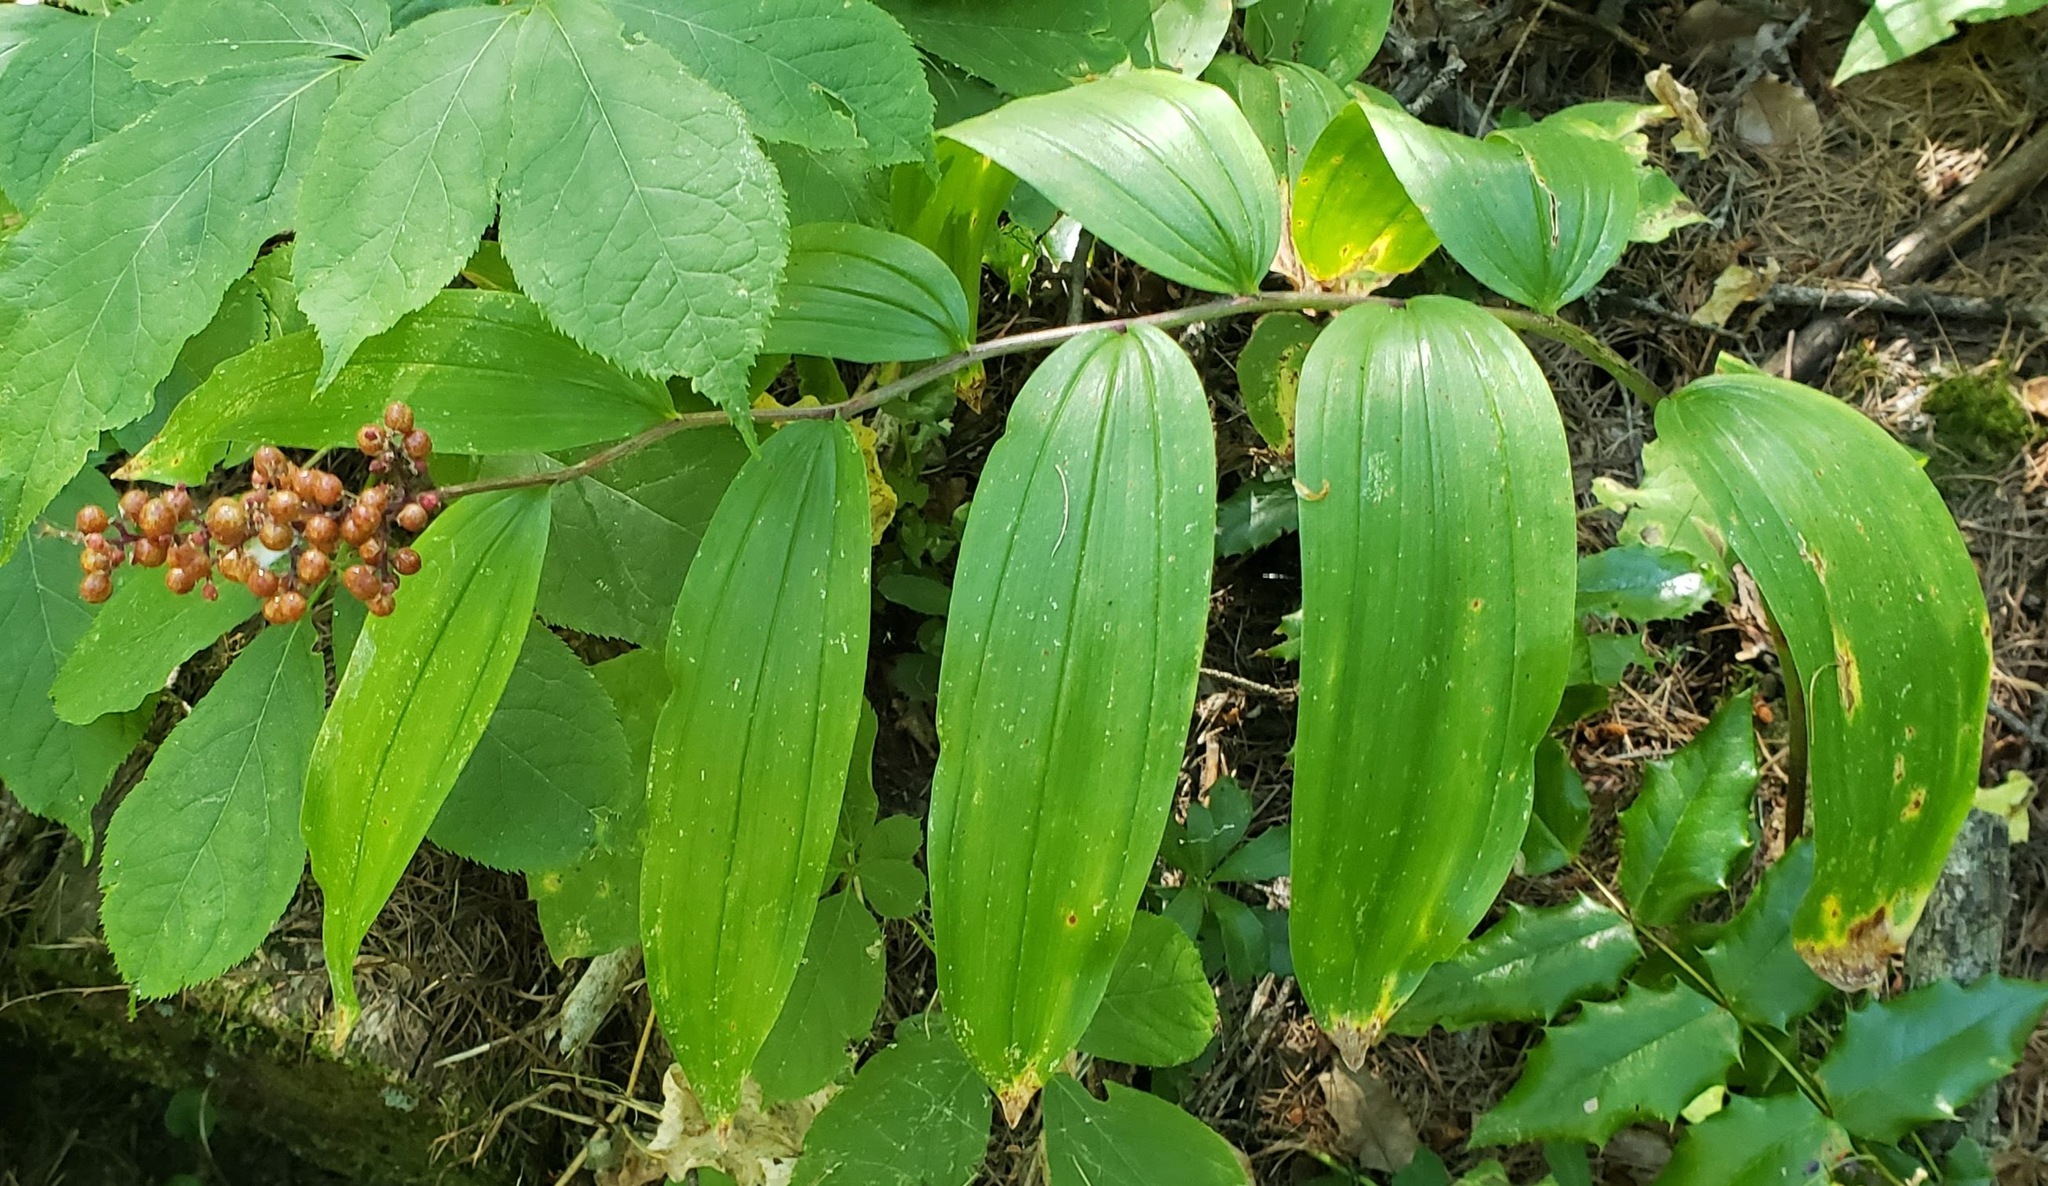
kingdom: Plantae
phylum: Tracheophyta
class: Liliopsida
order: Asparagales
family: Asparagaceae
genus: Maianthemum
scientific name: Maianthemum racemosum
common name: False spikenard
